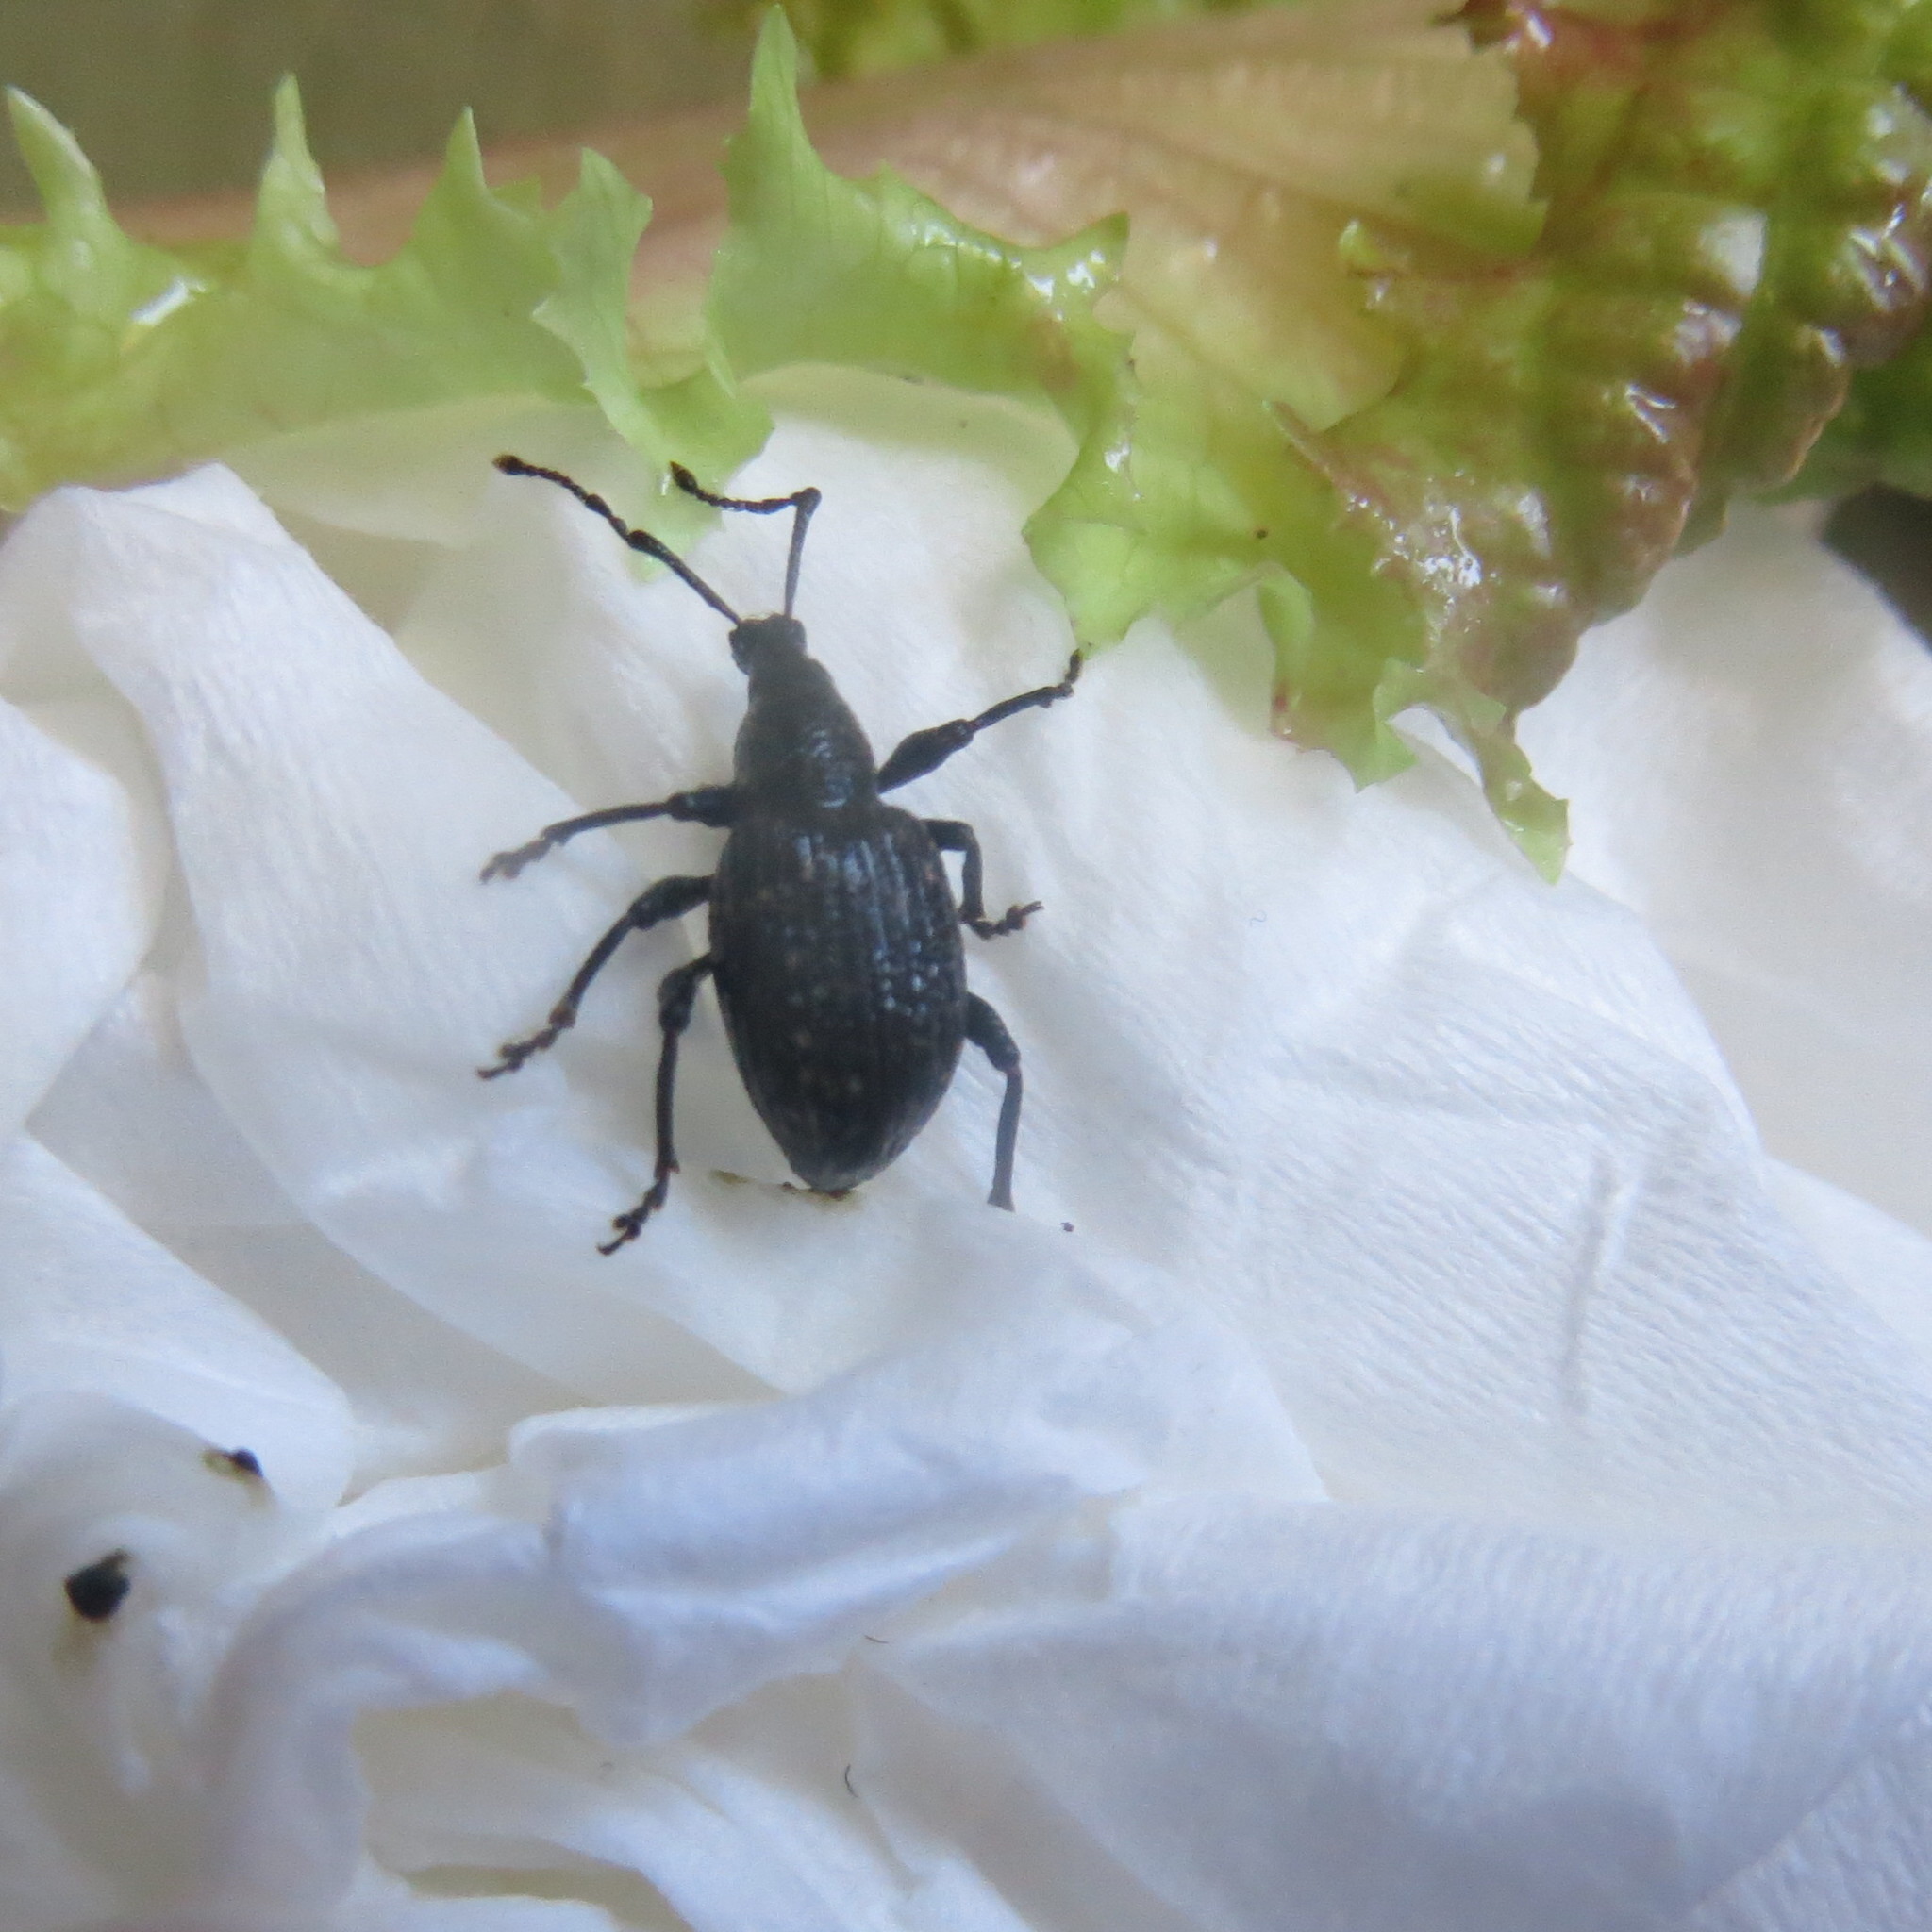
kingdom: Animalia
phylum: Arthropoda
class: Insecta
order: Coleoptera
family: Curculionidae
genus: Otiorhynchus
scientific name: Otiorhynchus sulcatus
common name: Black vine weevil
